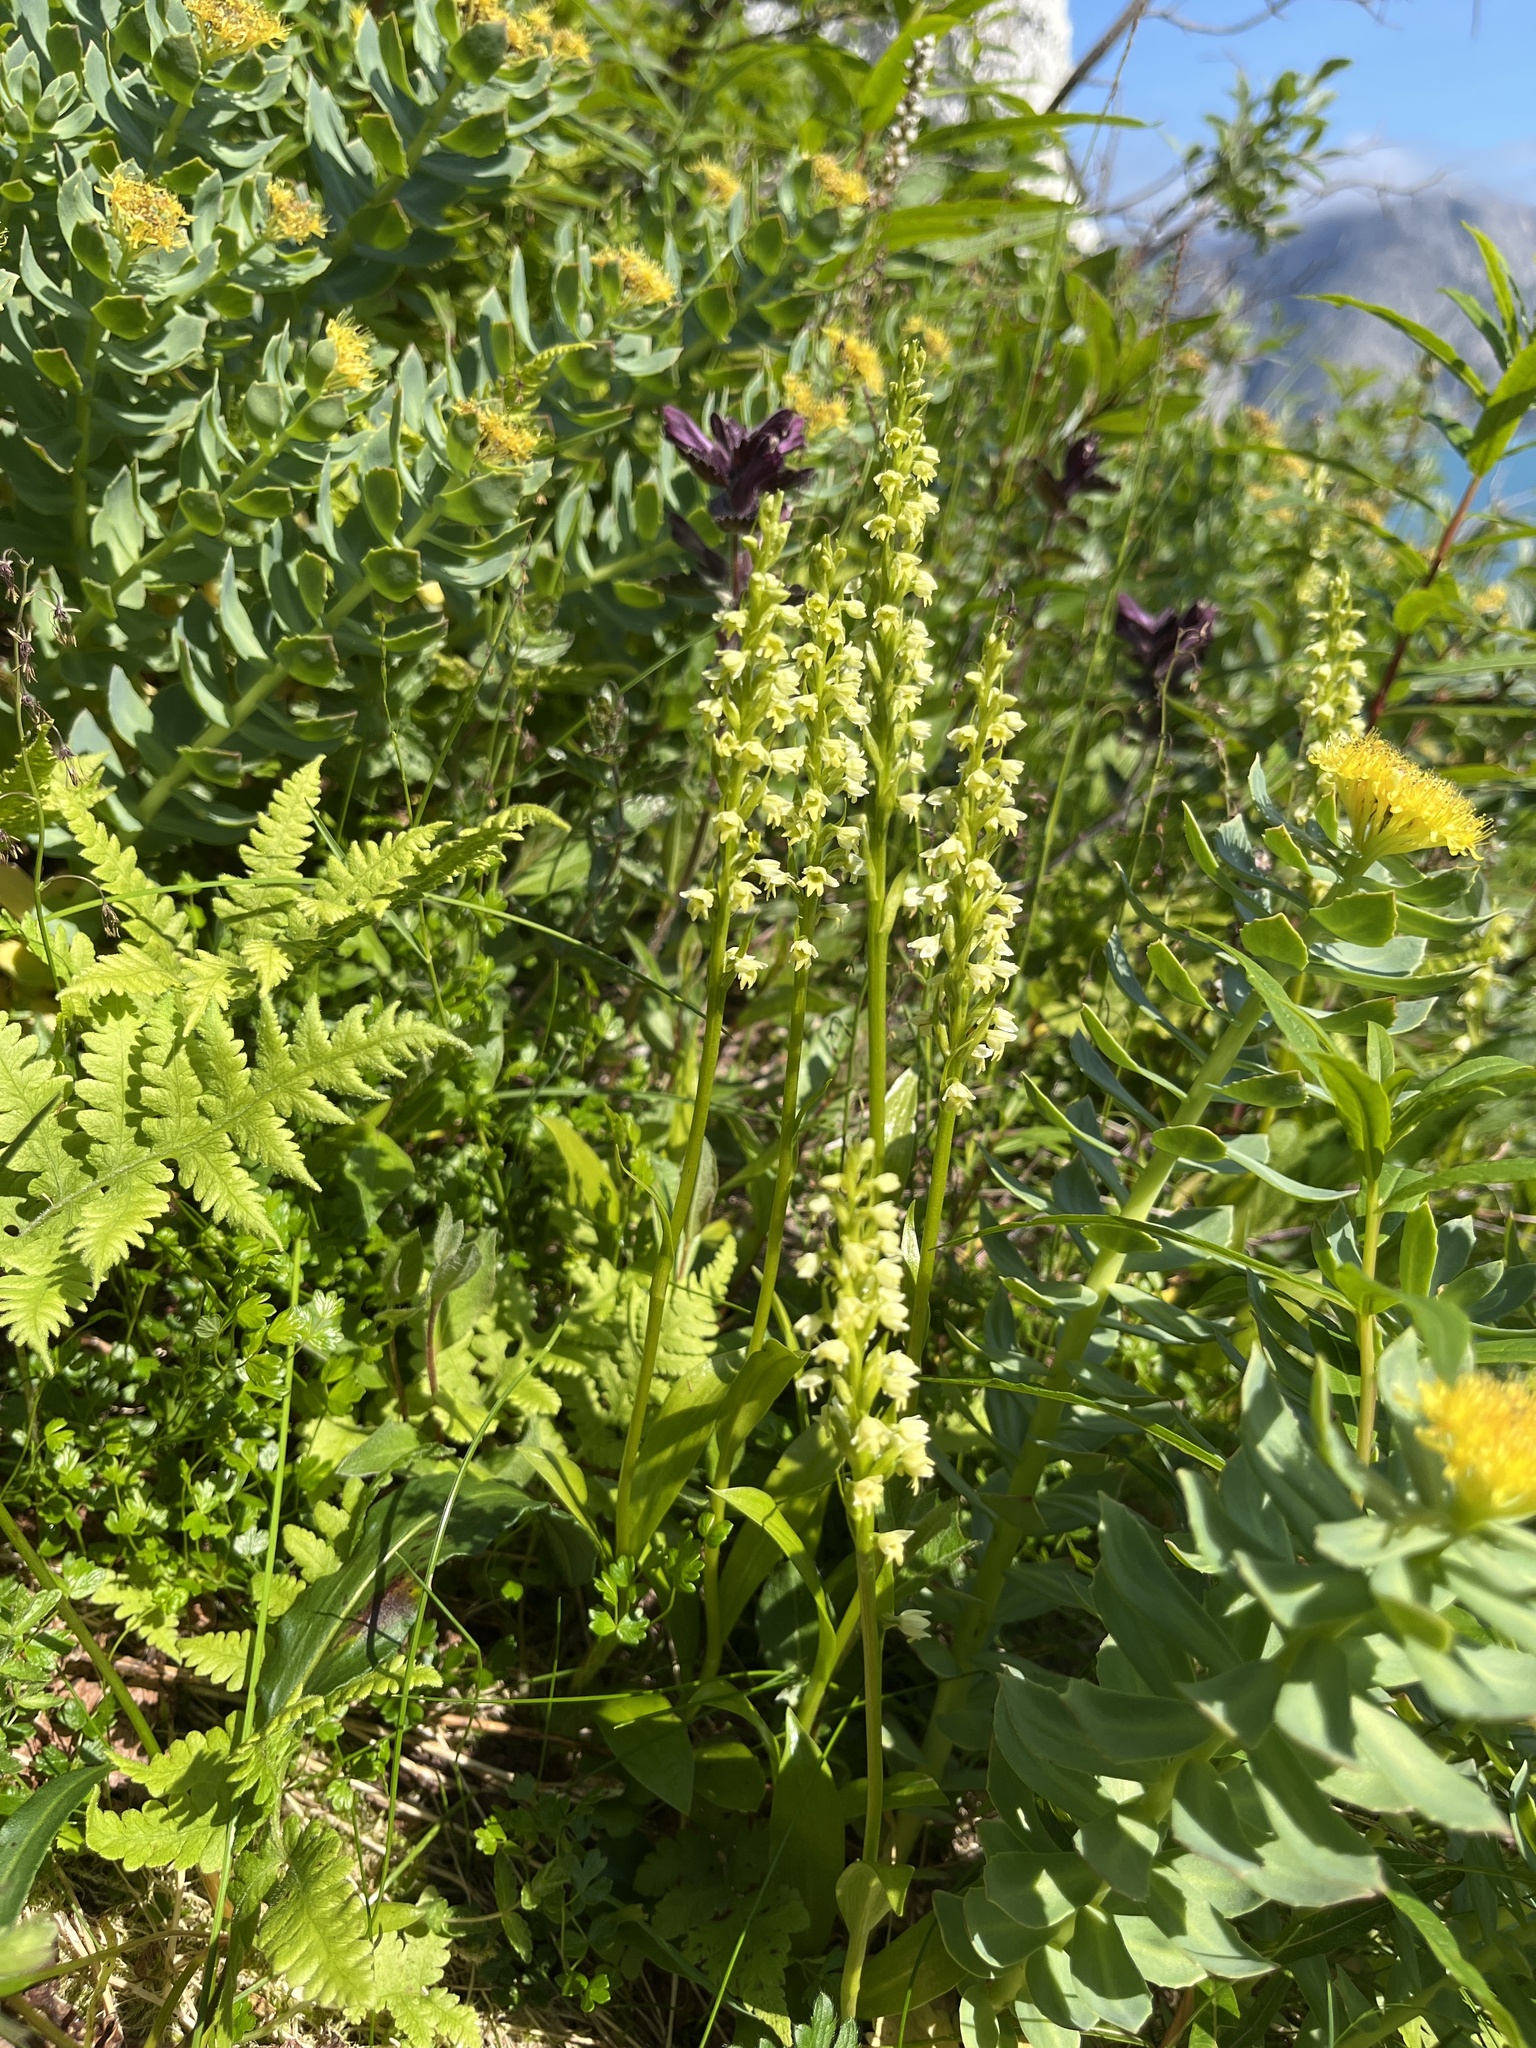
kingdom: Plantae
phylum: Tracheophyta
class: Liliopsida
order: Asparagales
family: Orchidaceae
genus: Pseudorchis
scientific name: Pseudorchis straminea
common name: Vanilla-scented bog orchid
